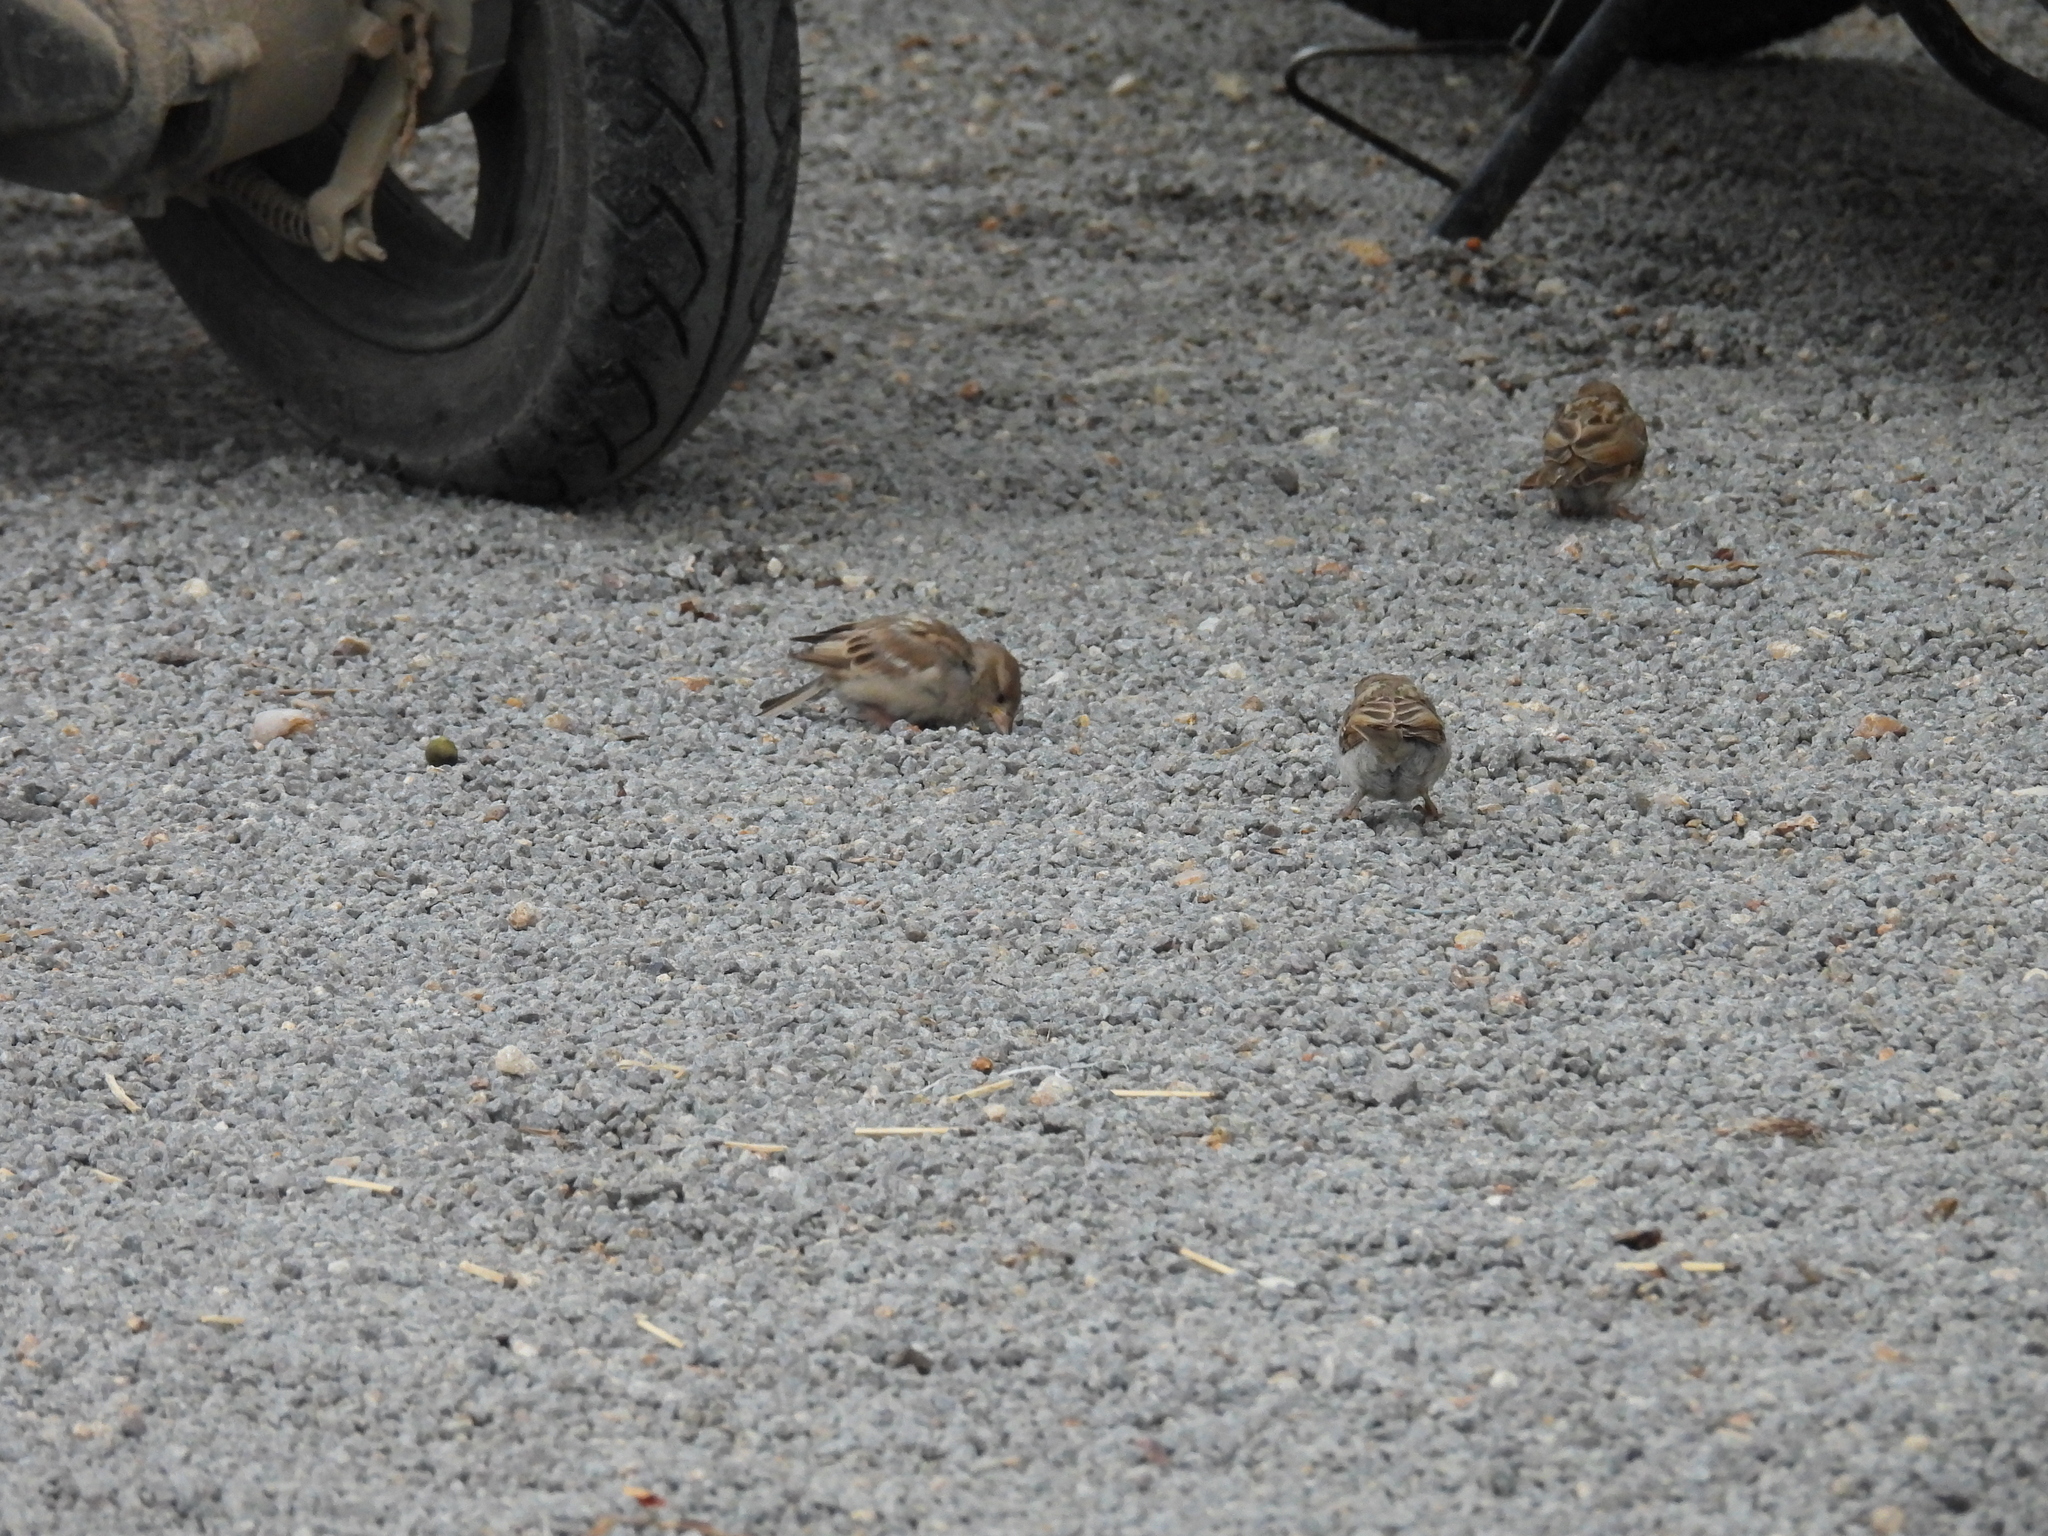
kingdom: Animalia
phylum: Chordata
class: Aves
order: Passeriformes
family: Passeridae
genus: Passer
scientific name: Passer domesticus
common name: House sparrow
